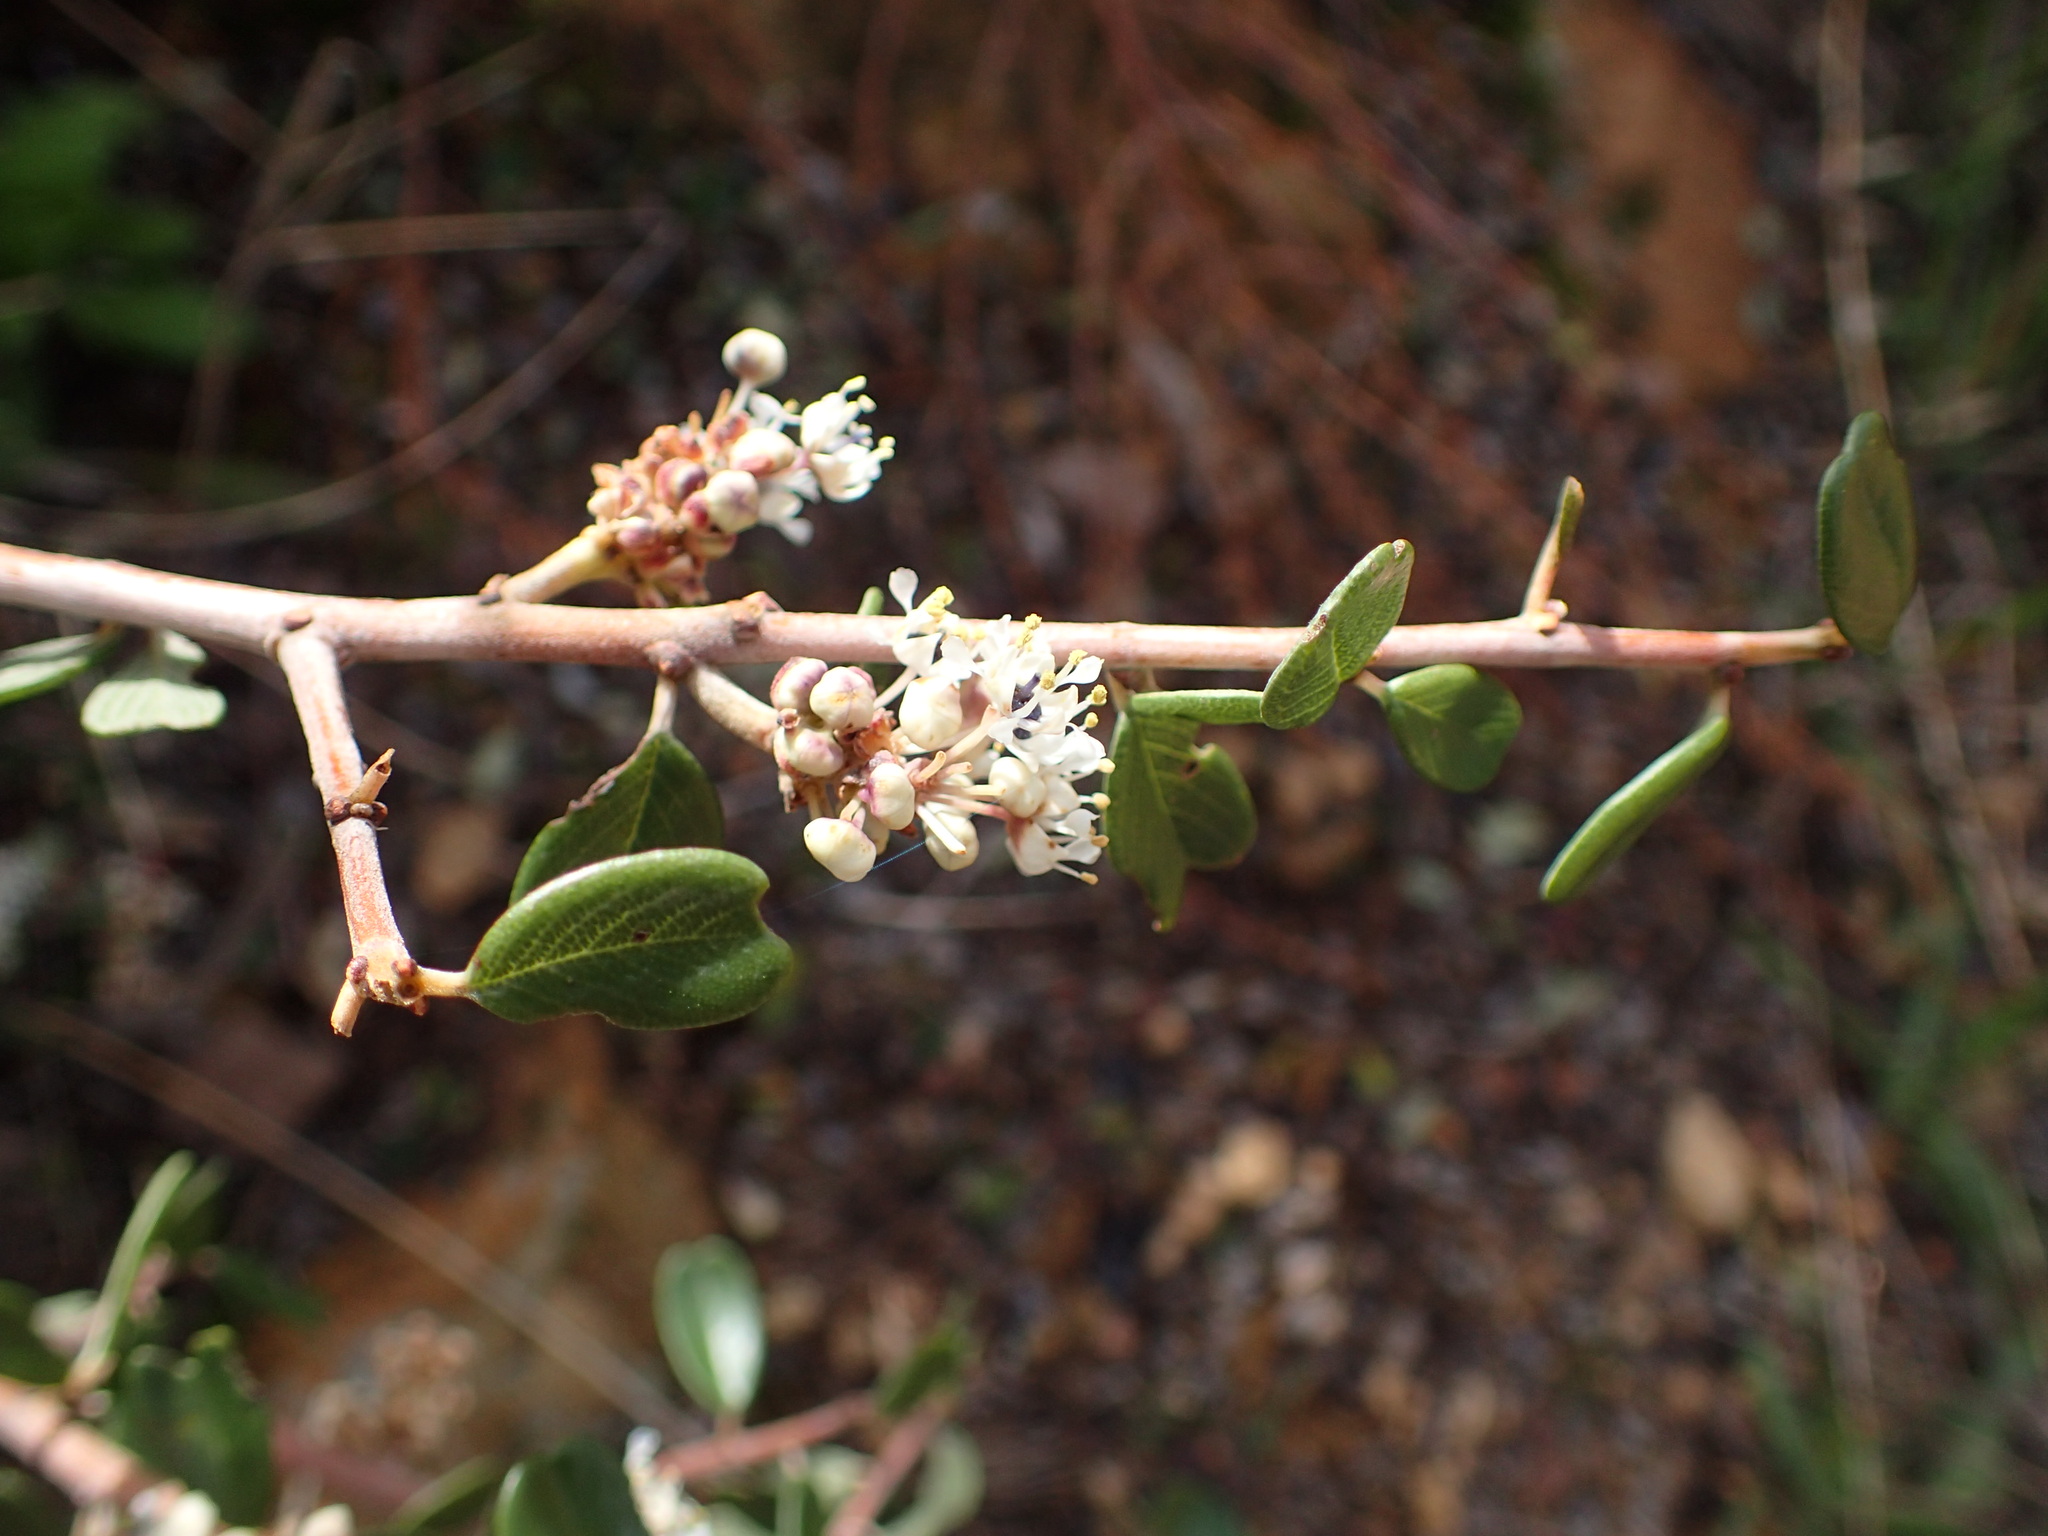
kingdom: Plantae
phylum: Tracheophyta
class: Magnoliopsida
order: Rosales
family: Rhamnaceae
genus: Ceanothus
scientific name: Ceanothus megacarpus
